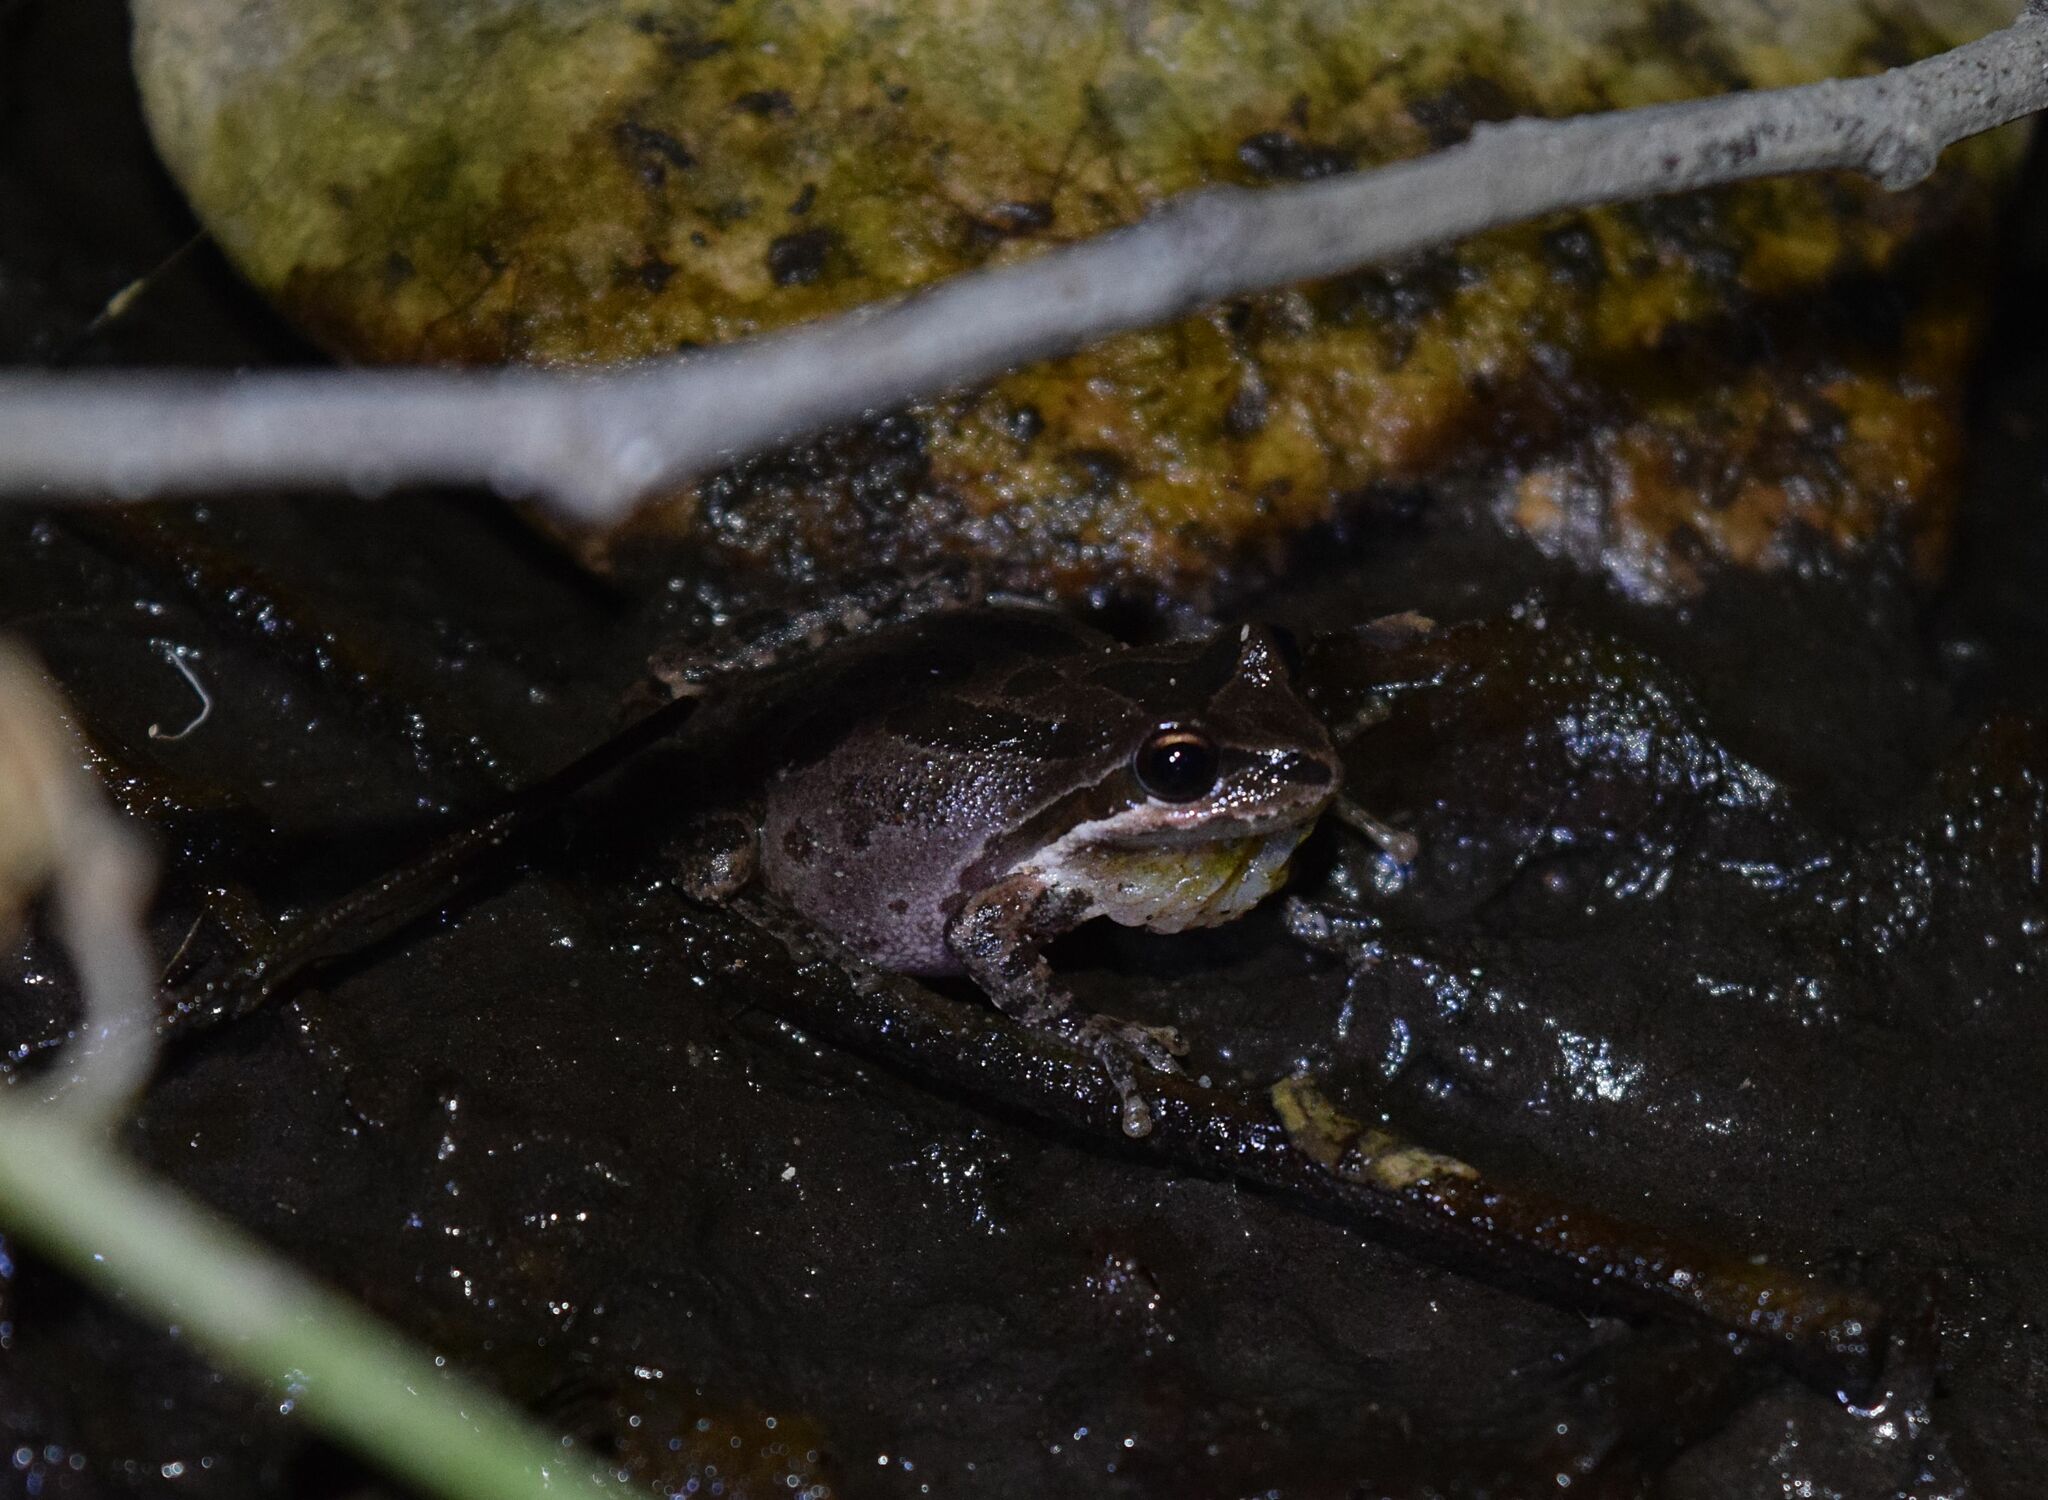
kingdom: Animalia
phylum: Chordata
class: Amphibia
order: Anura
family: Hylidae
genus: Pseudacris
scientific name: Pseudacris regilla
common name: Pacific chorus frog
